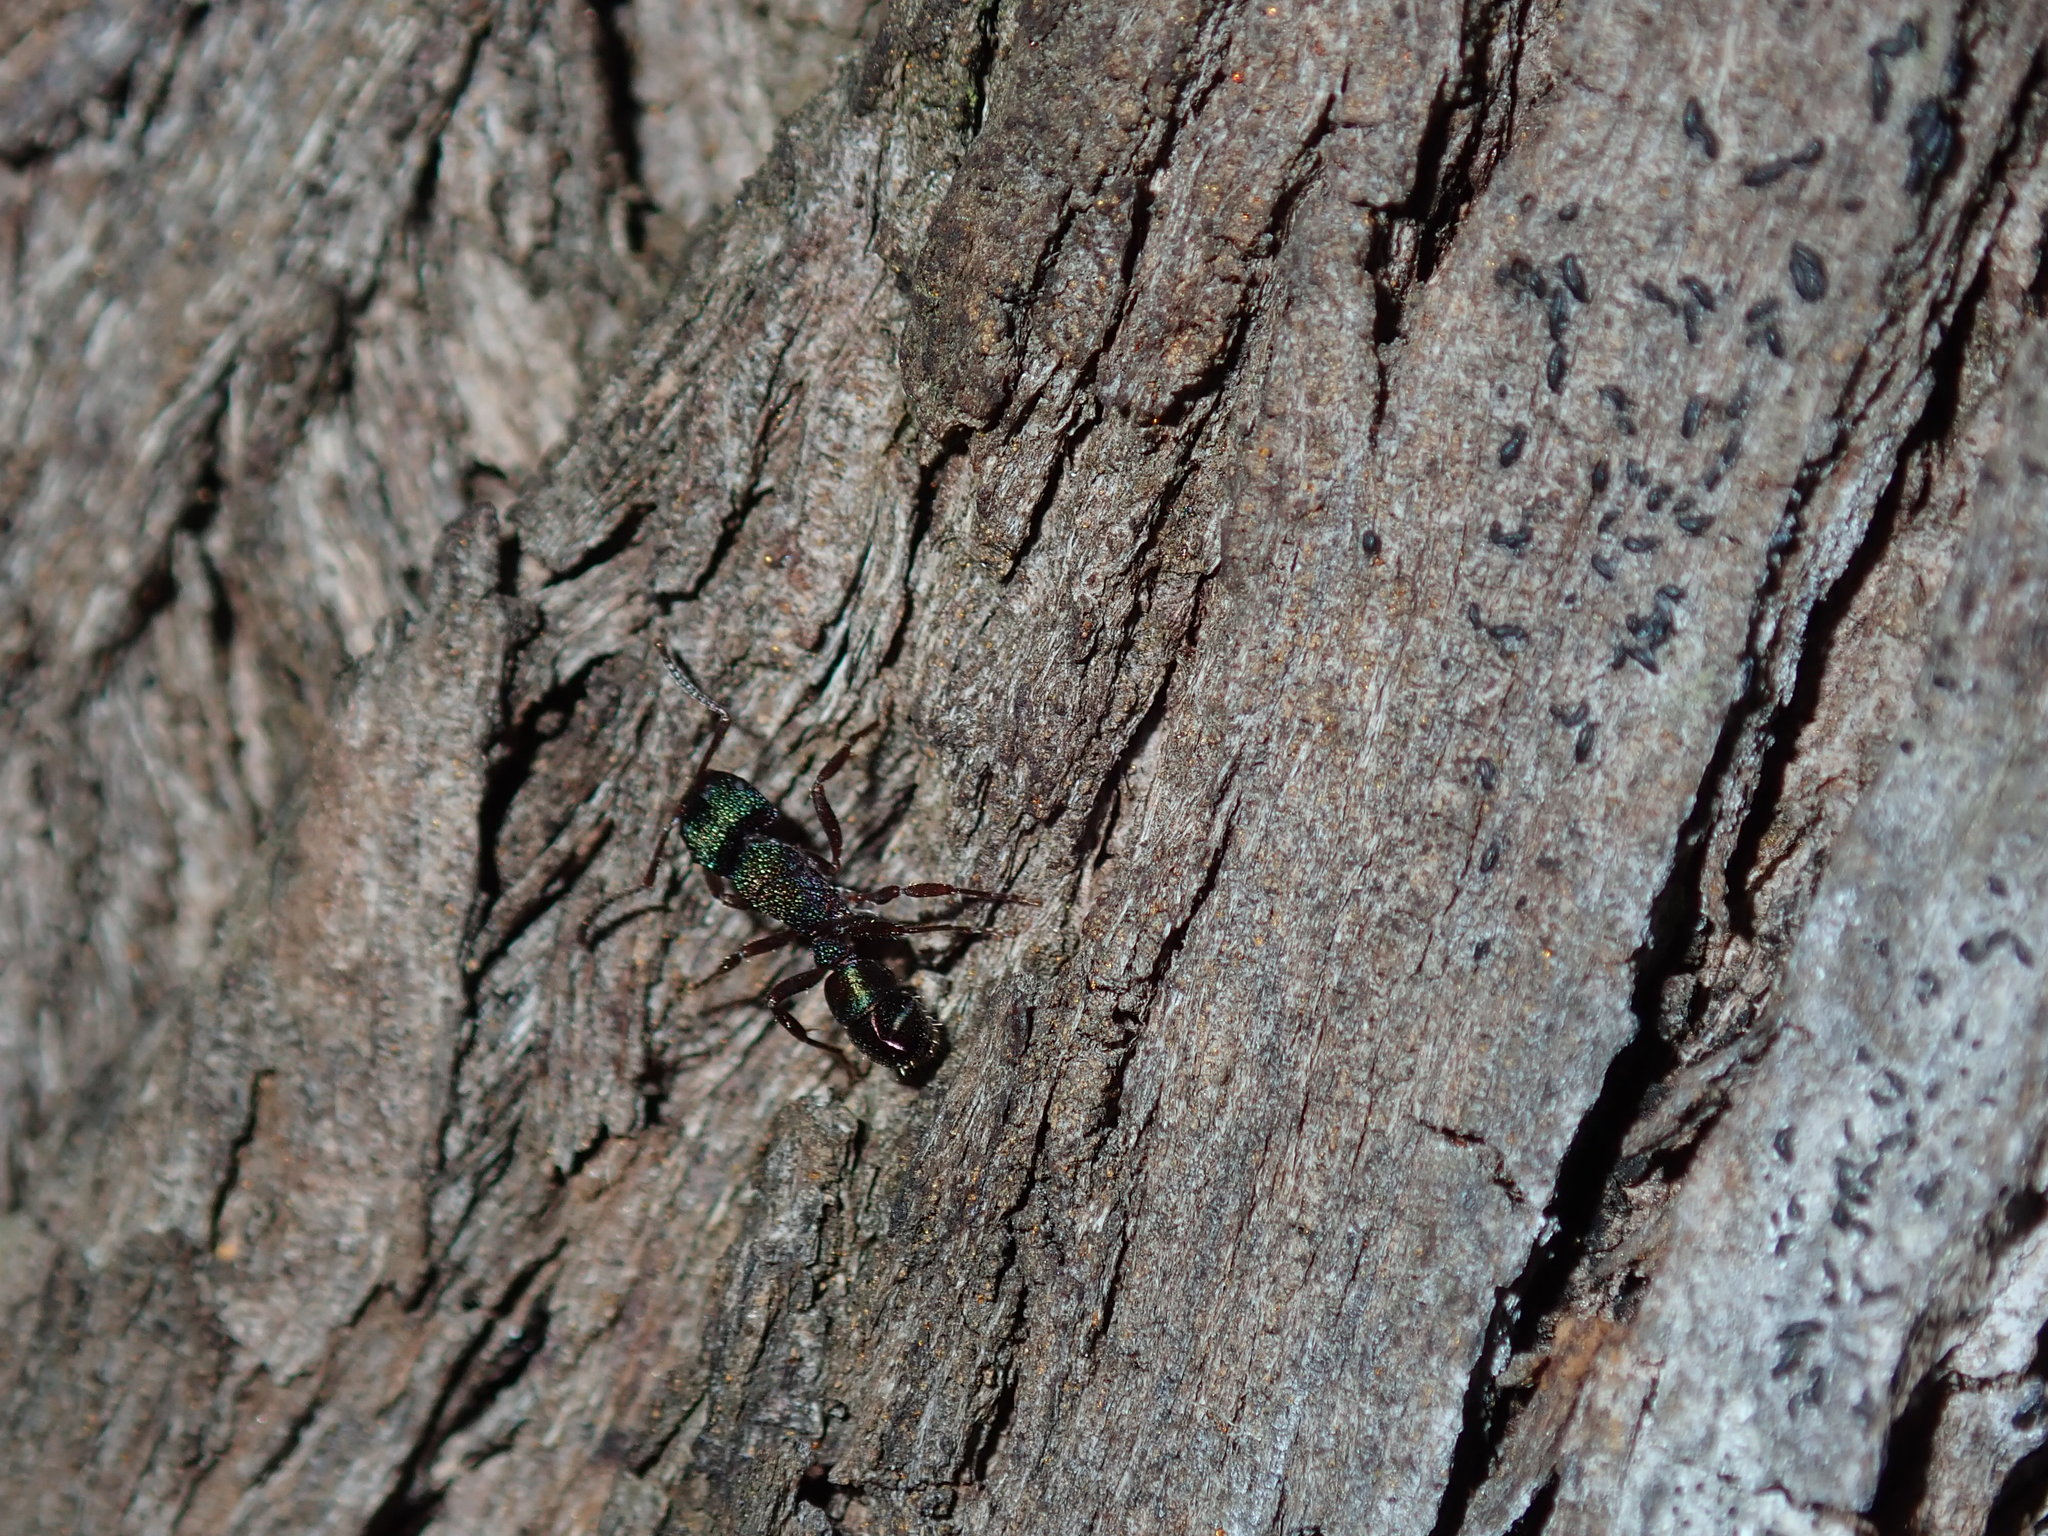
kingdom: Animalia
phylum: Arthropoda
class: Insecta
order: Hymenoptera
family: Formicidae
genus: Rhytidoponera
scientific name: Rhytidoponera metallica
